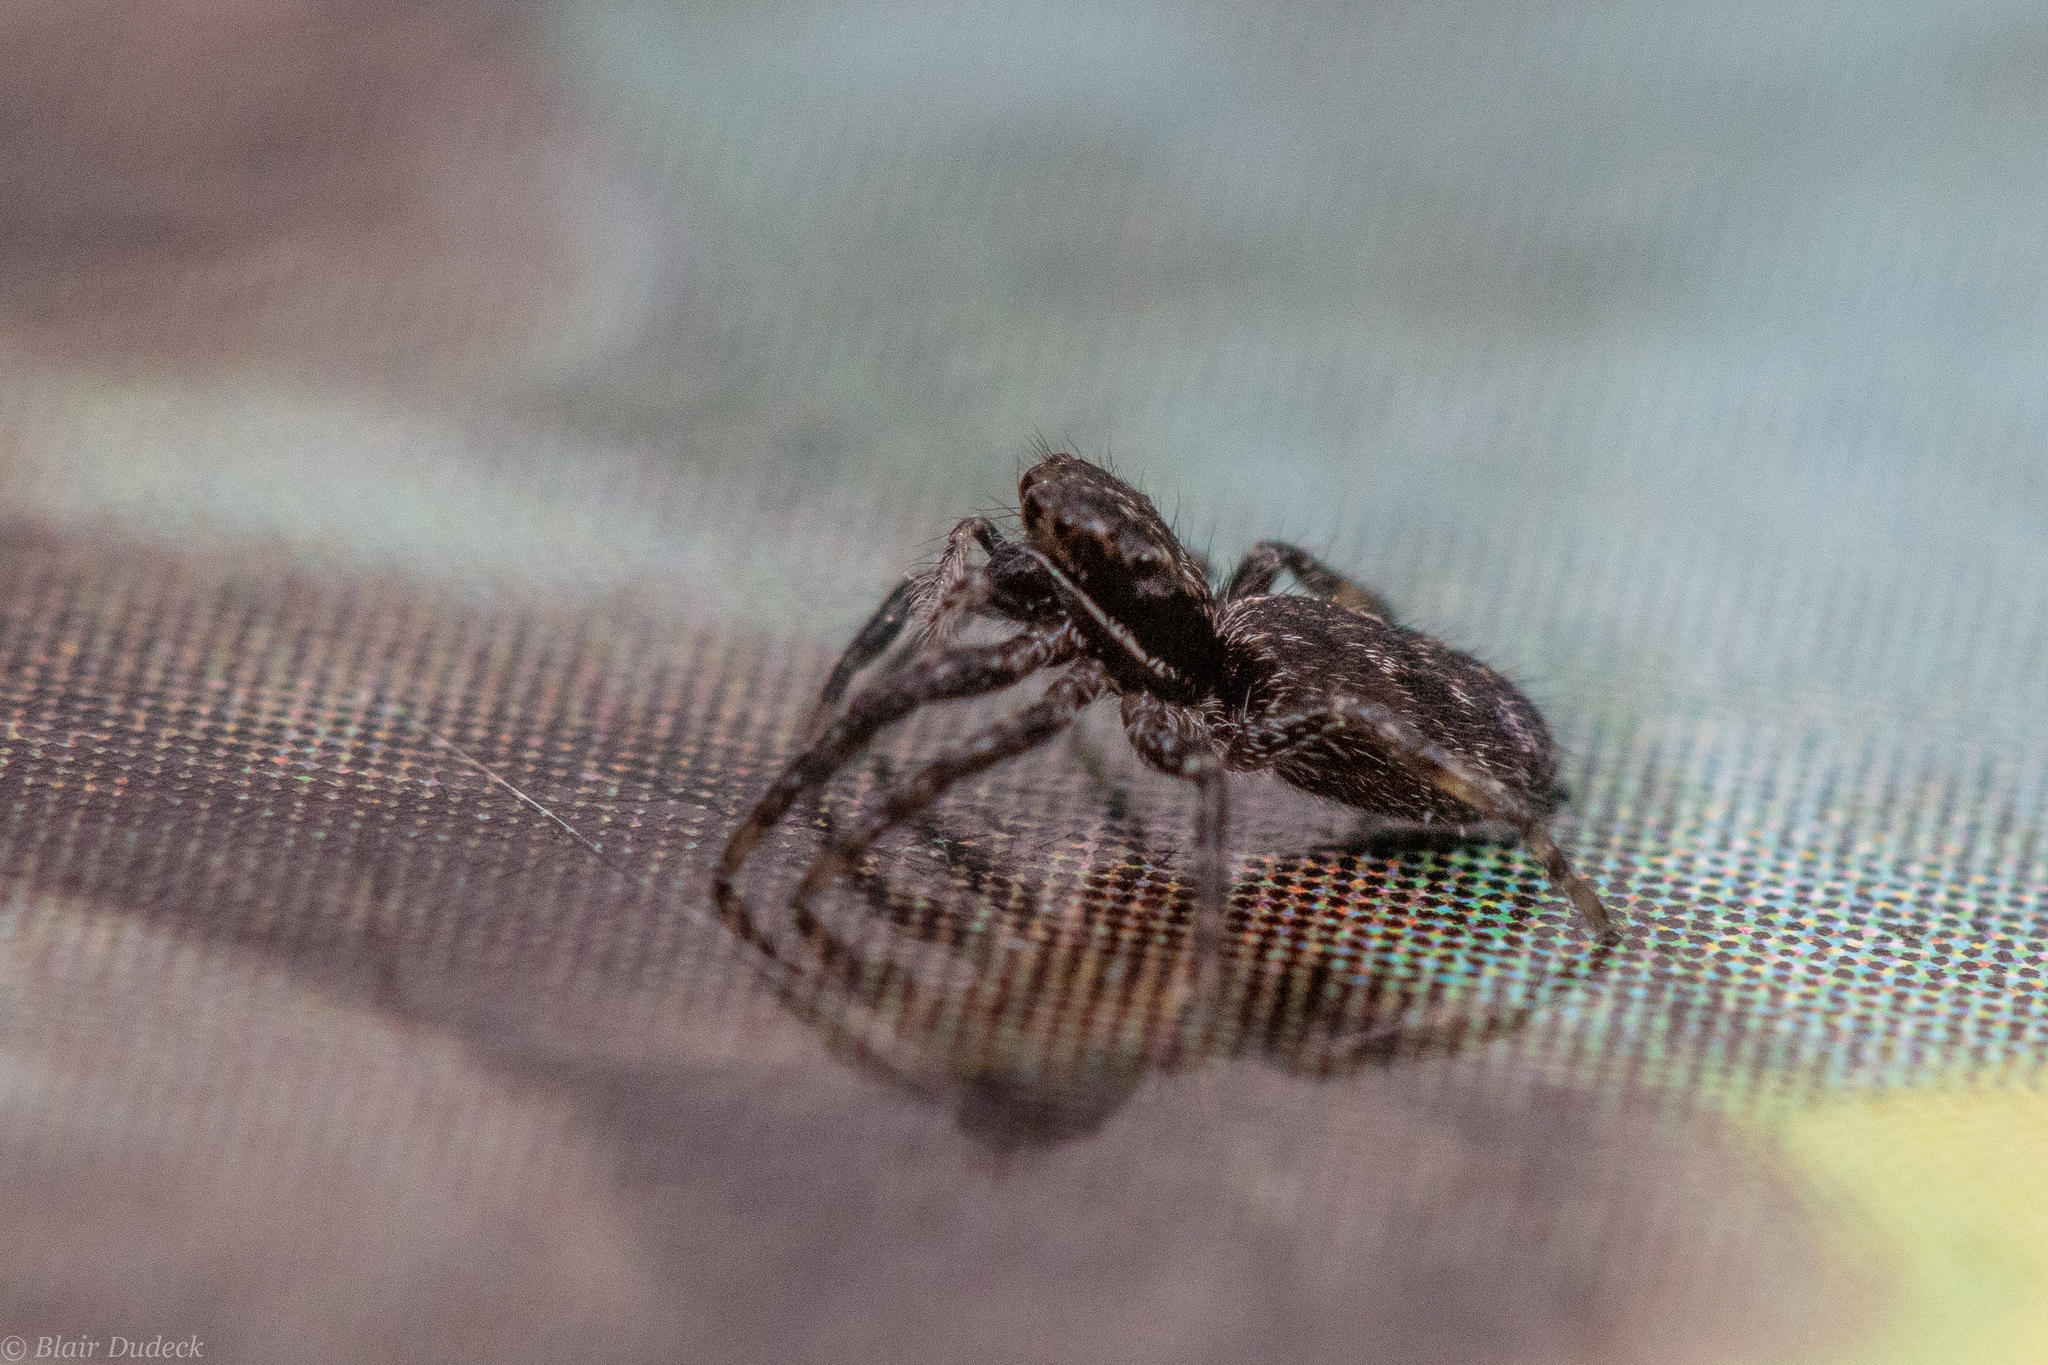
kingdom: Animalia
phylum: Arthropoda
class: Arachnida
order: Araneae
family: Salticidae
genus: Platycryptus
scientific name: Platycryptus californicus
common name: Jumping spiders
